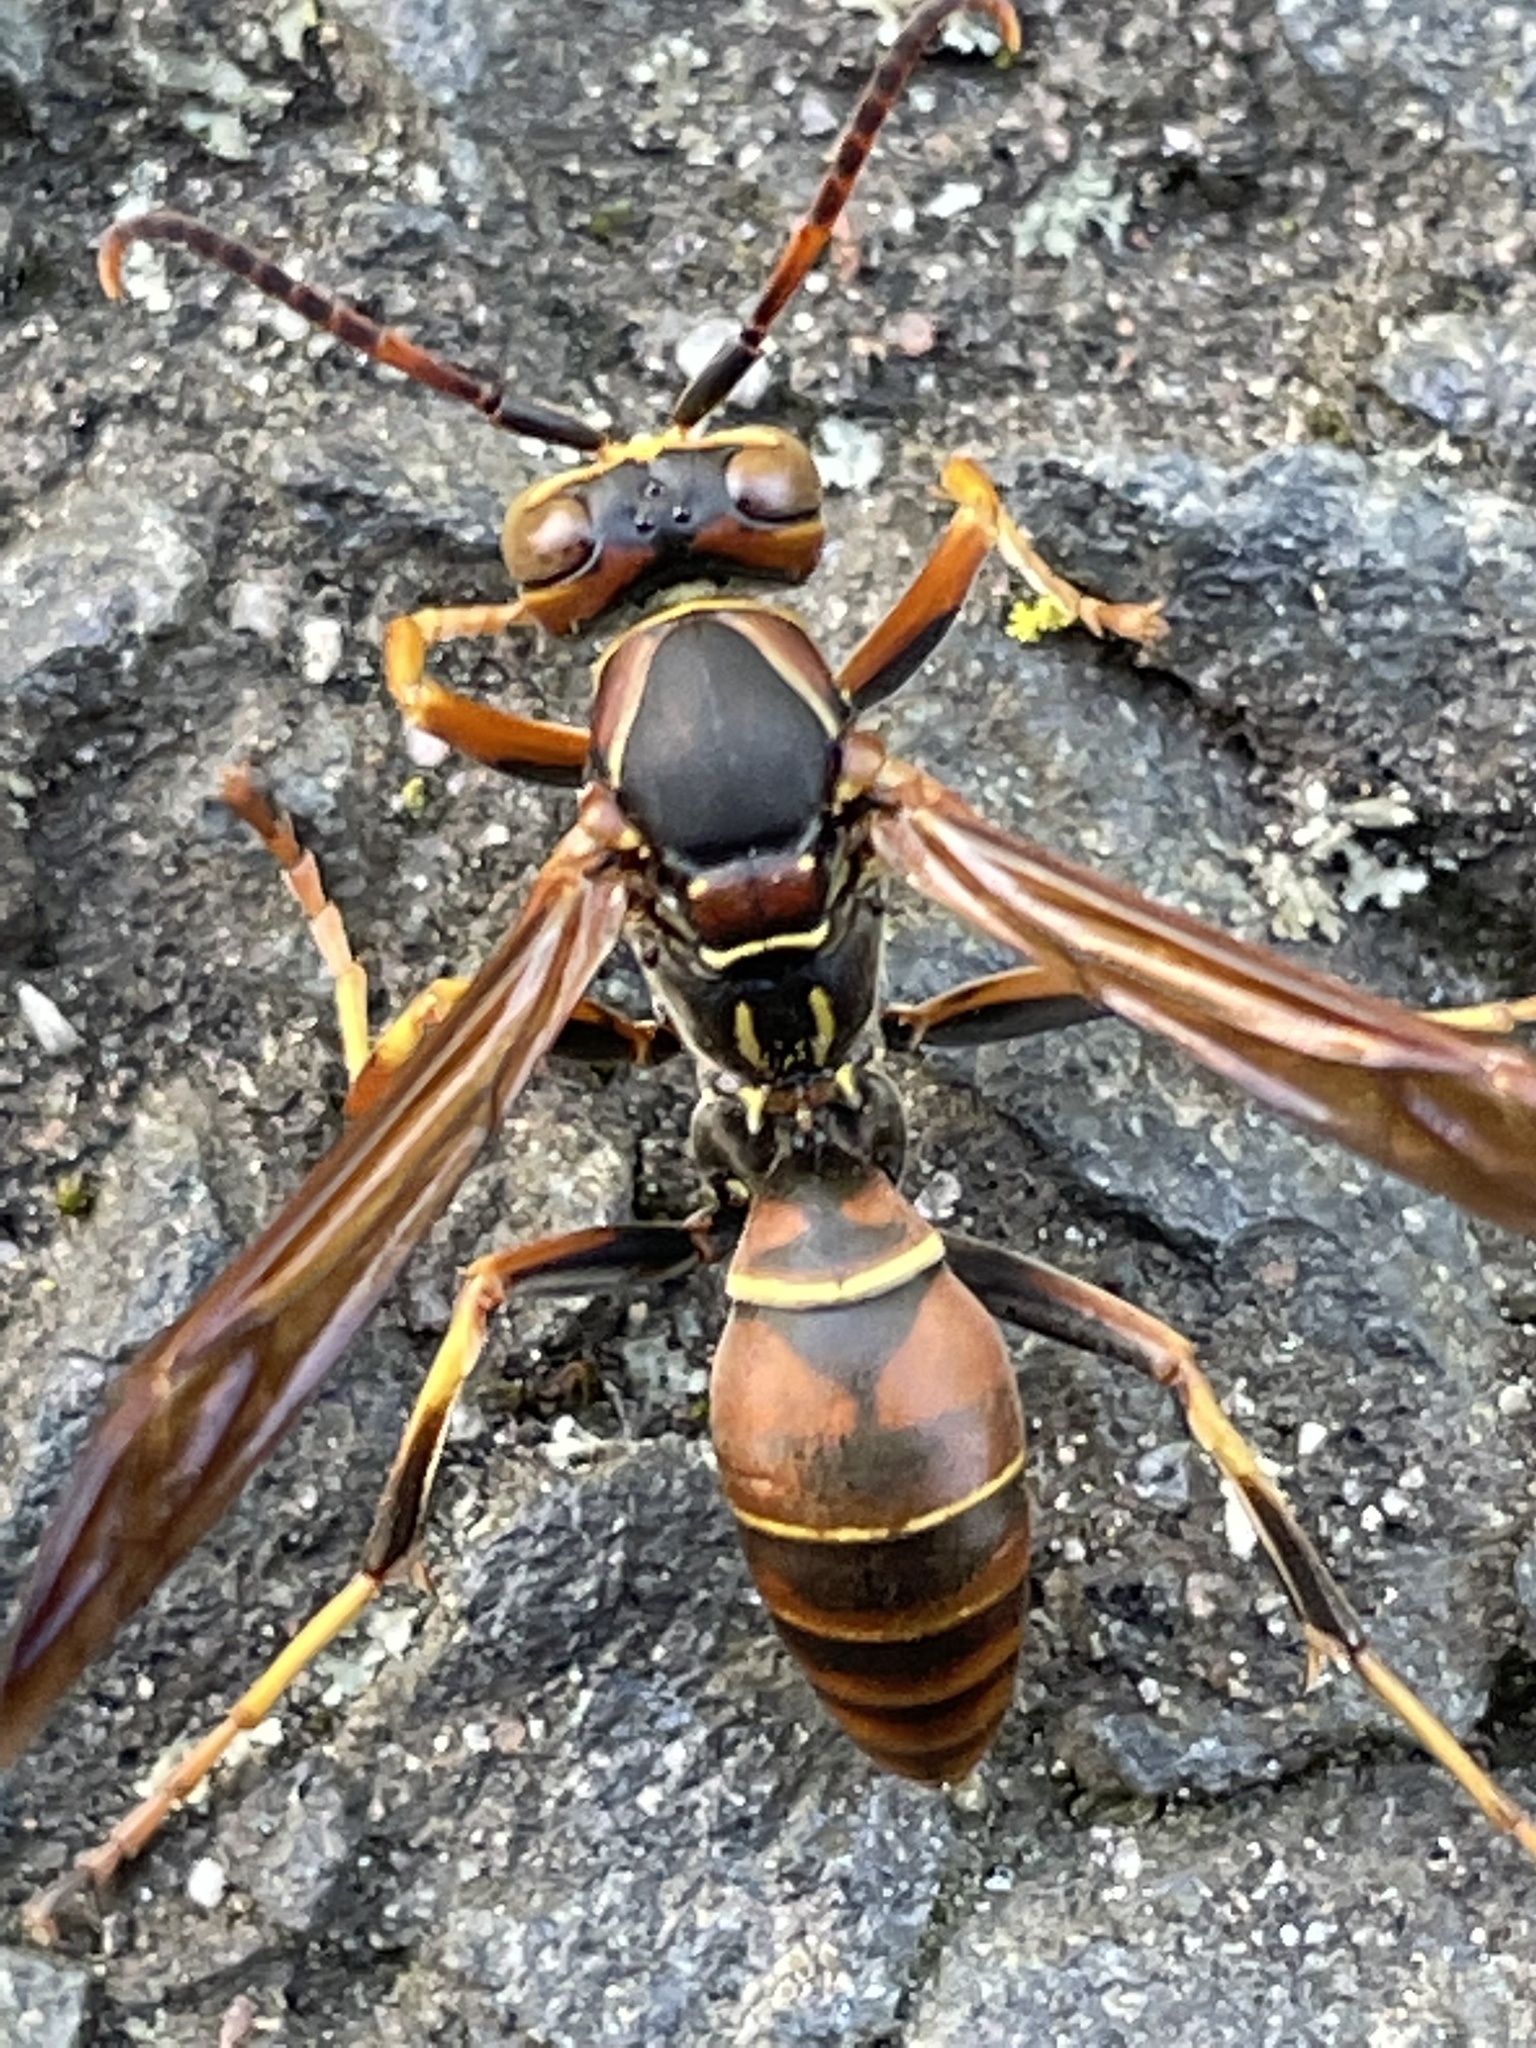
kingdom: Animalia
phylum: Arthropoda
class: Insecta
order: Hymenoptera
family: Eumenidae
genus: Polistes
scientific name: Polistes fuscatus
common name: Dark paper wasp
